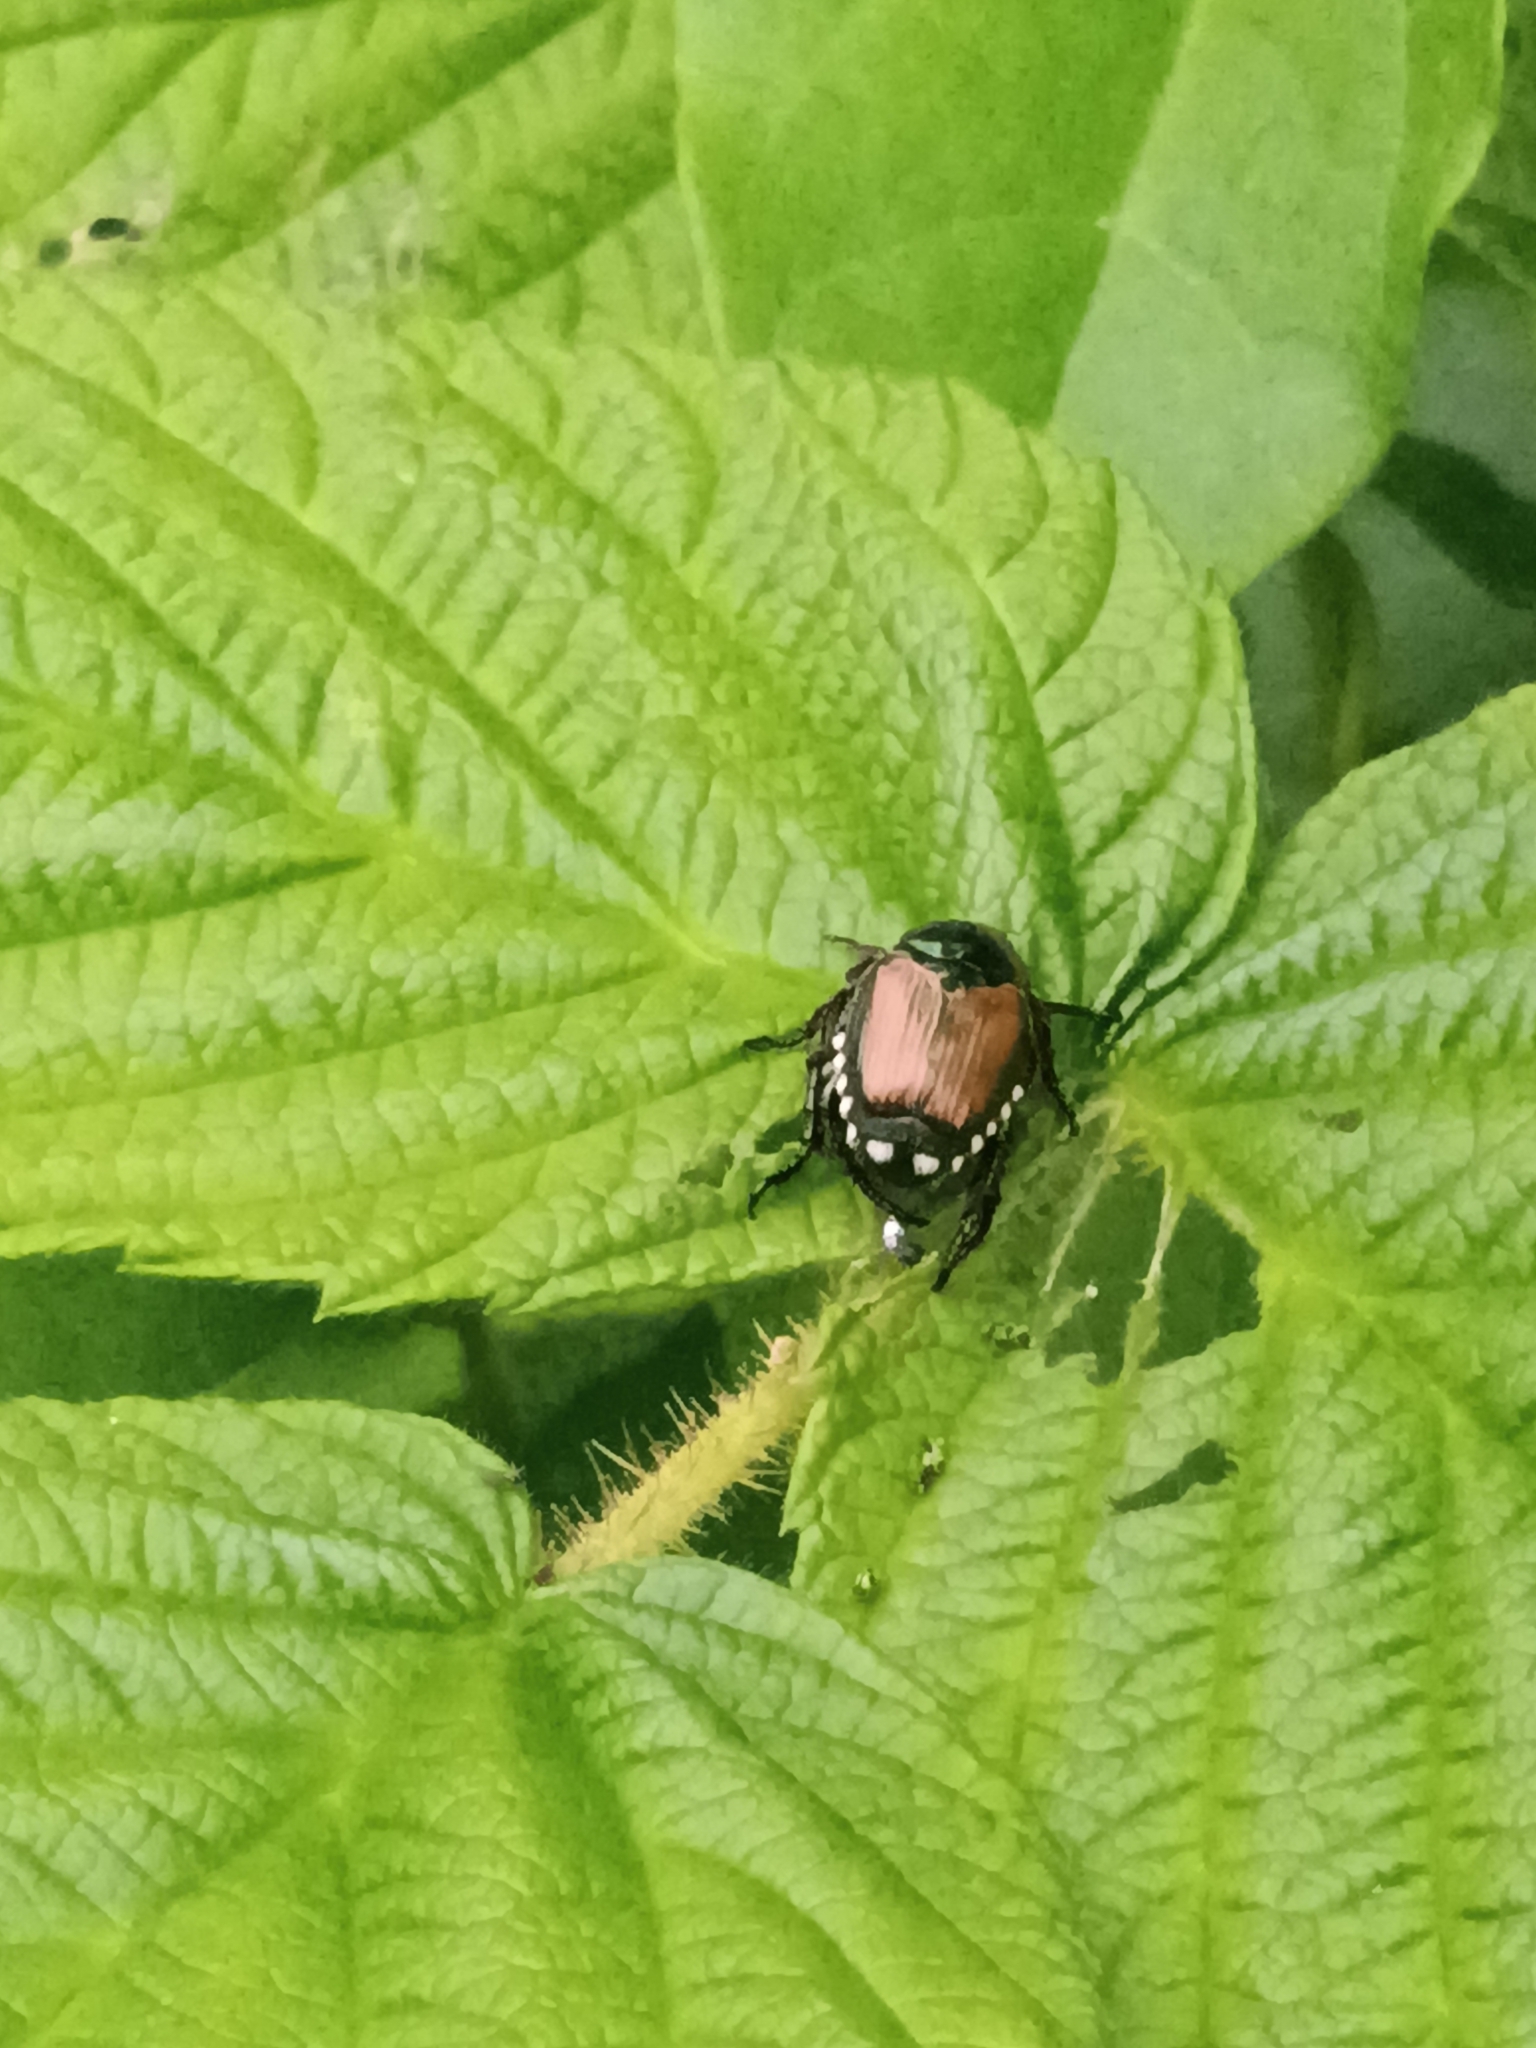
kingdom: Animalia
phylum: Arthropoda
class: Insecta
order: Coleoptera
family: Scarabaeidae
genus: Popillia
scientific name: Popillia japonica
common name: Japanese beetle
